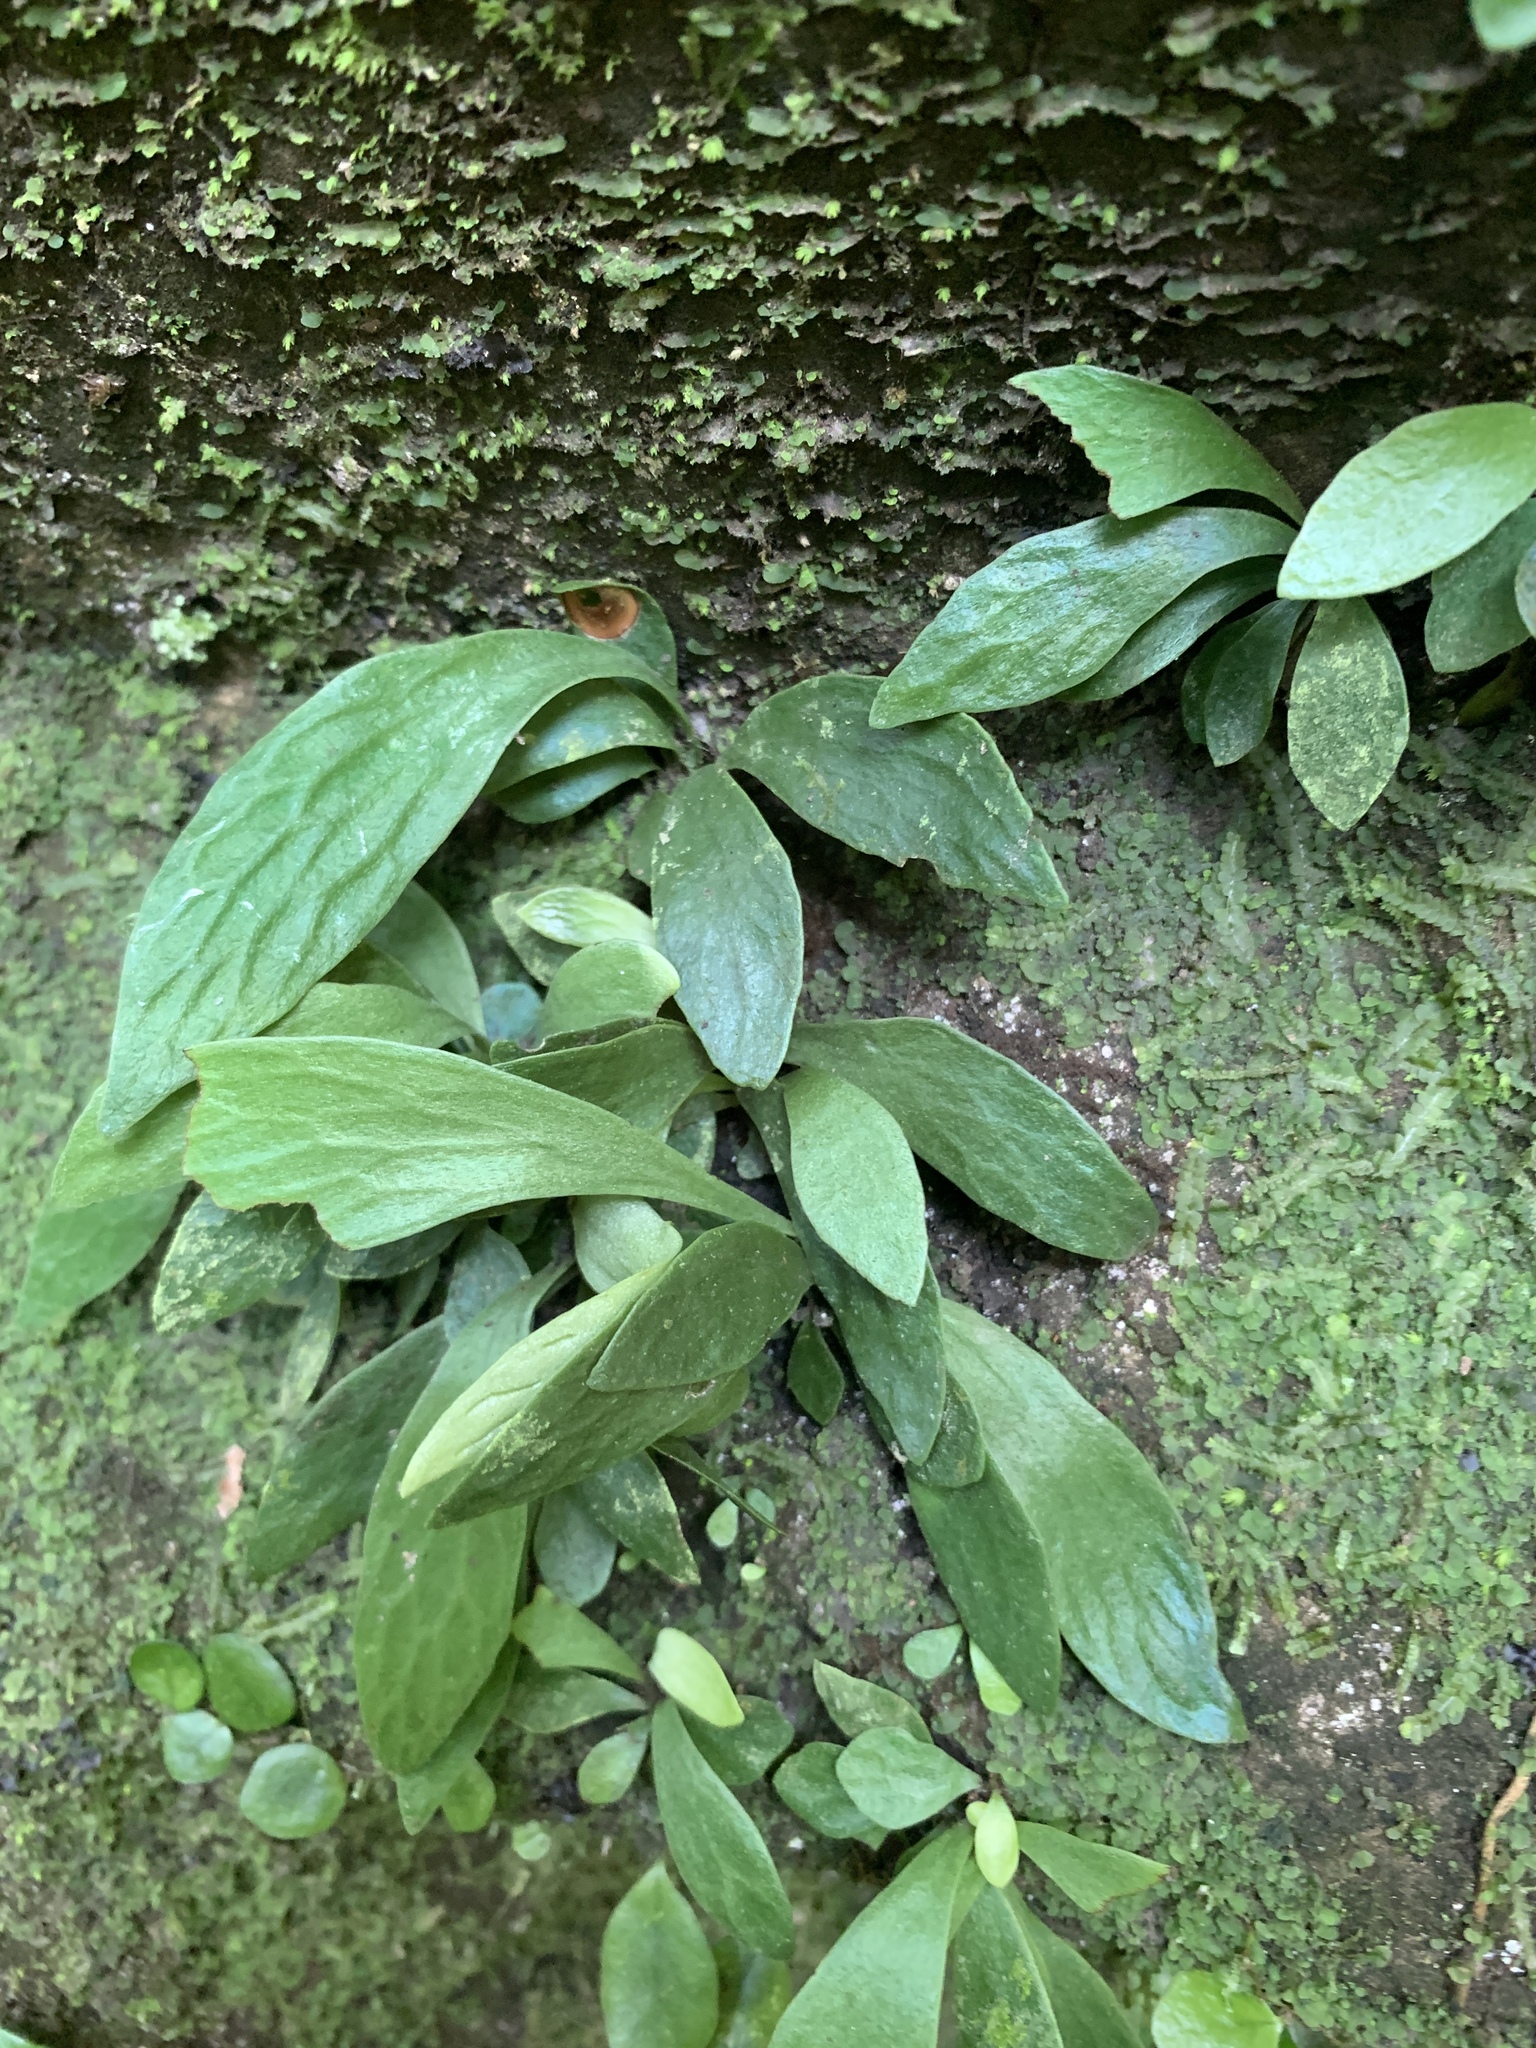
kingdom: Plantae
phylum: Tracheophyta
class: Polypodiopsida
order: Polypodiales
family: Pteridaceae
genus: Antrophyum
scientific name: Antrophyum formosanum
